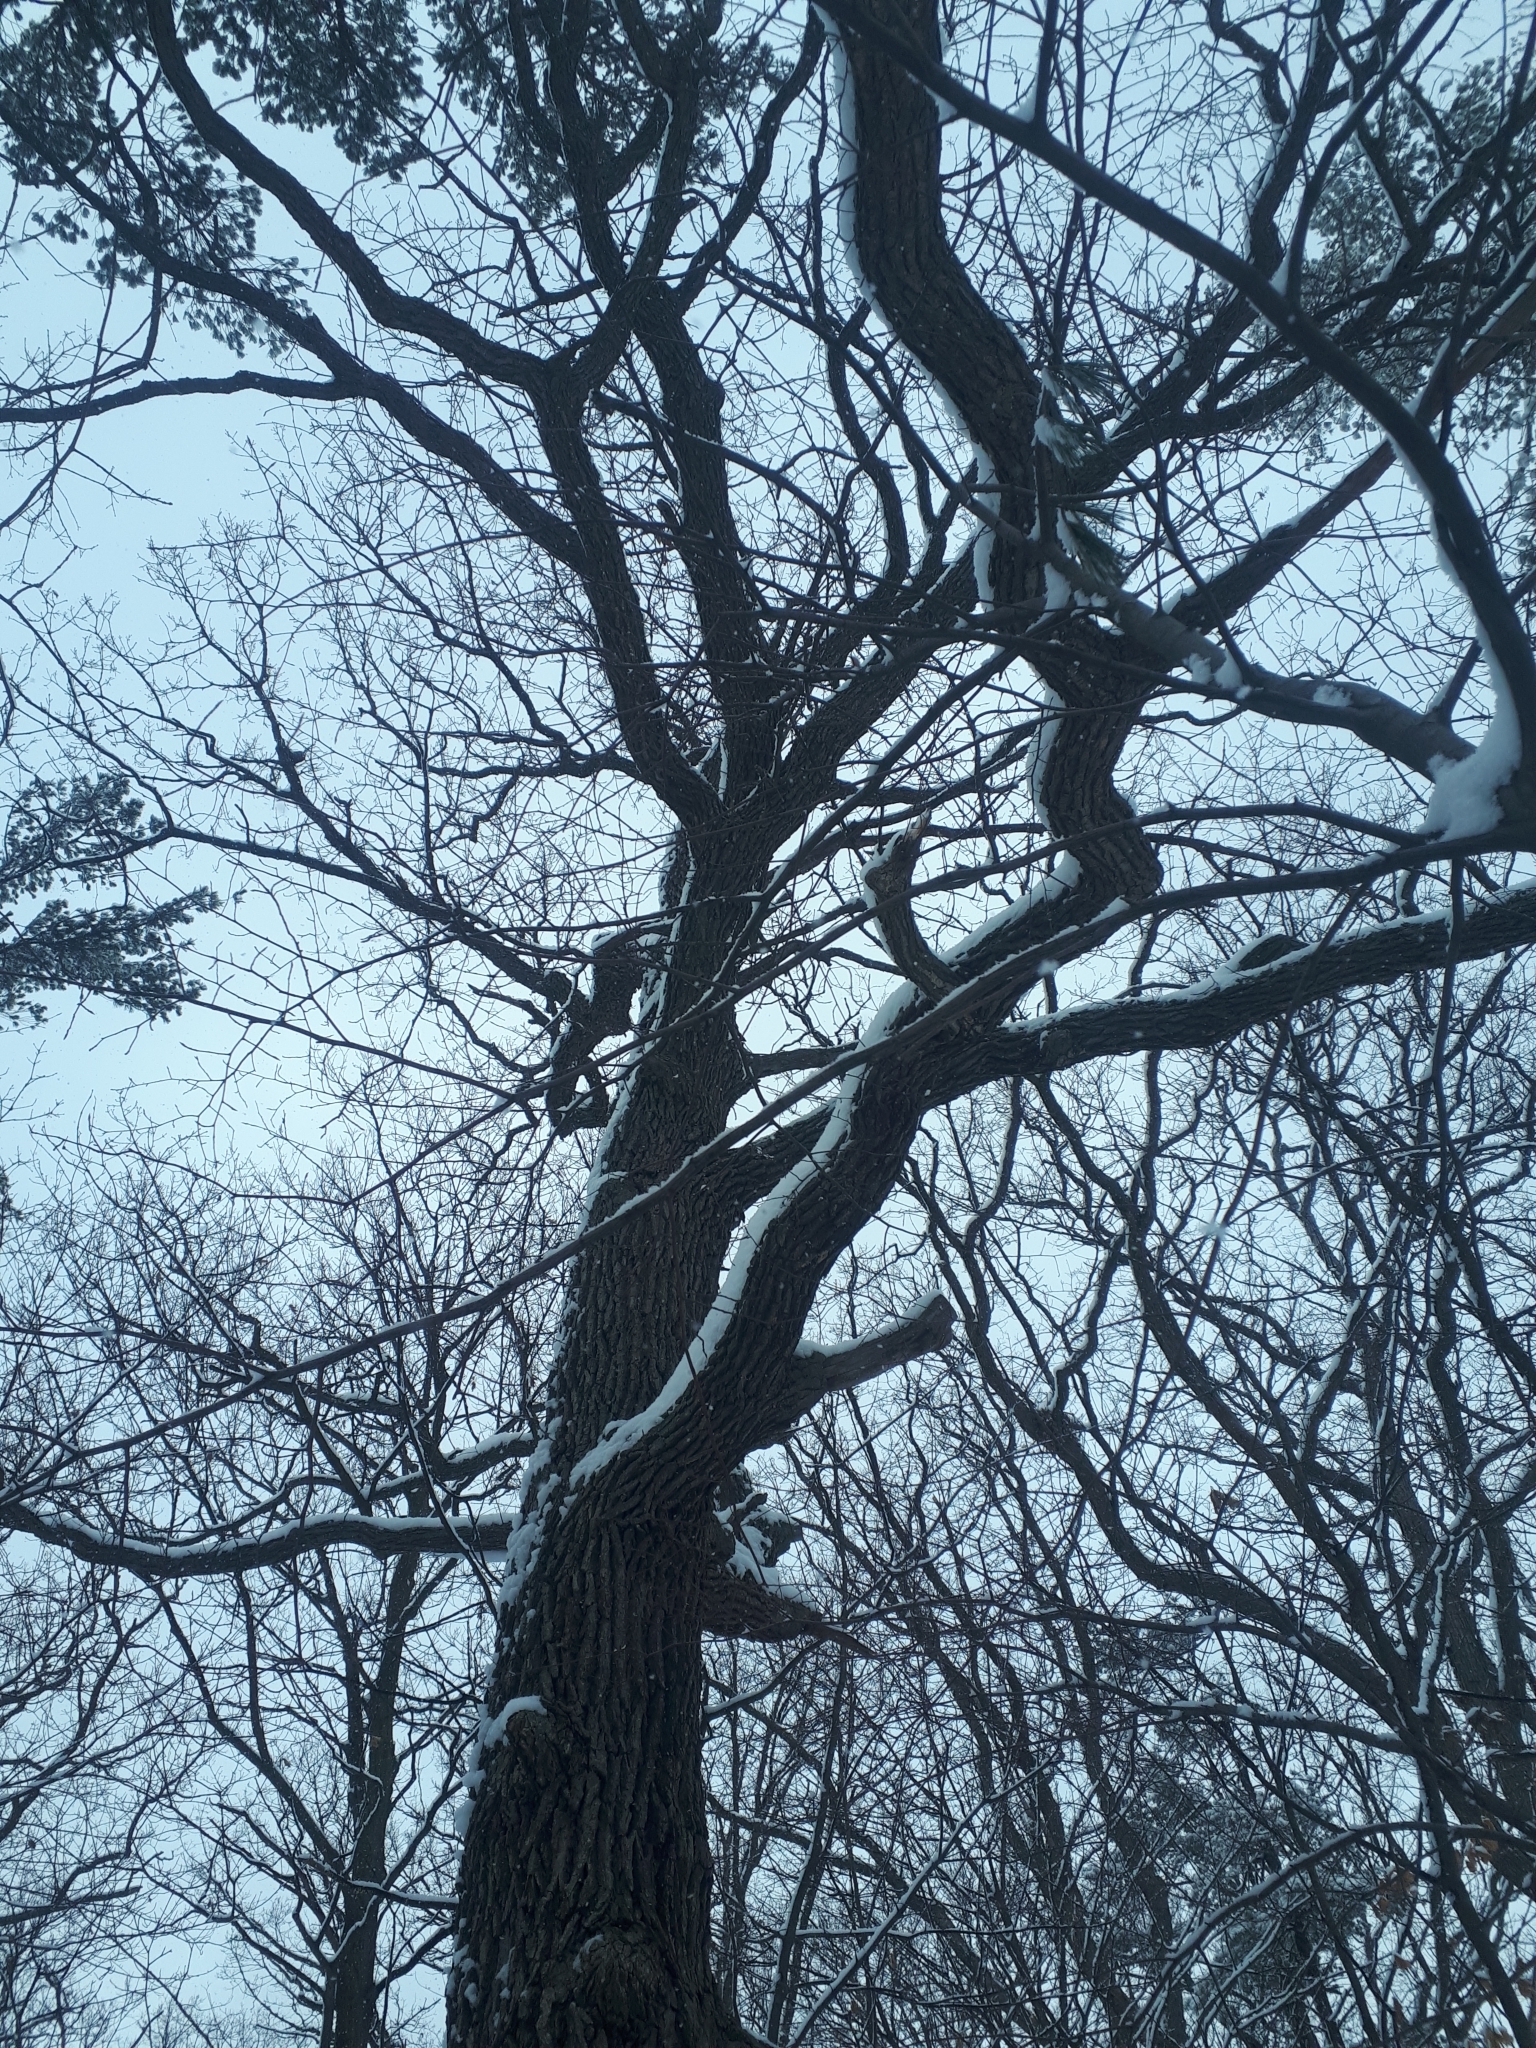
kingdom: Plantae
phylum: Tracheophyta
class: Magnoliopsida
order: Fagales
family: Fagaceae
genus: Quercus
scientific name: Quercus macrocarpa
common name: Bur oak
